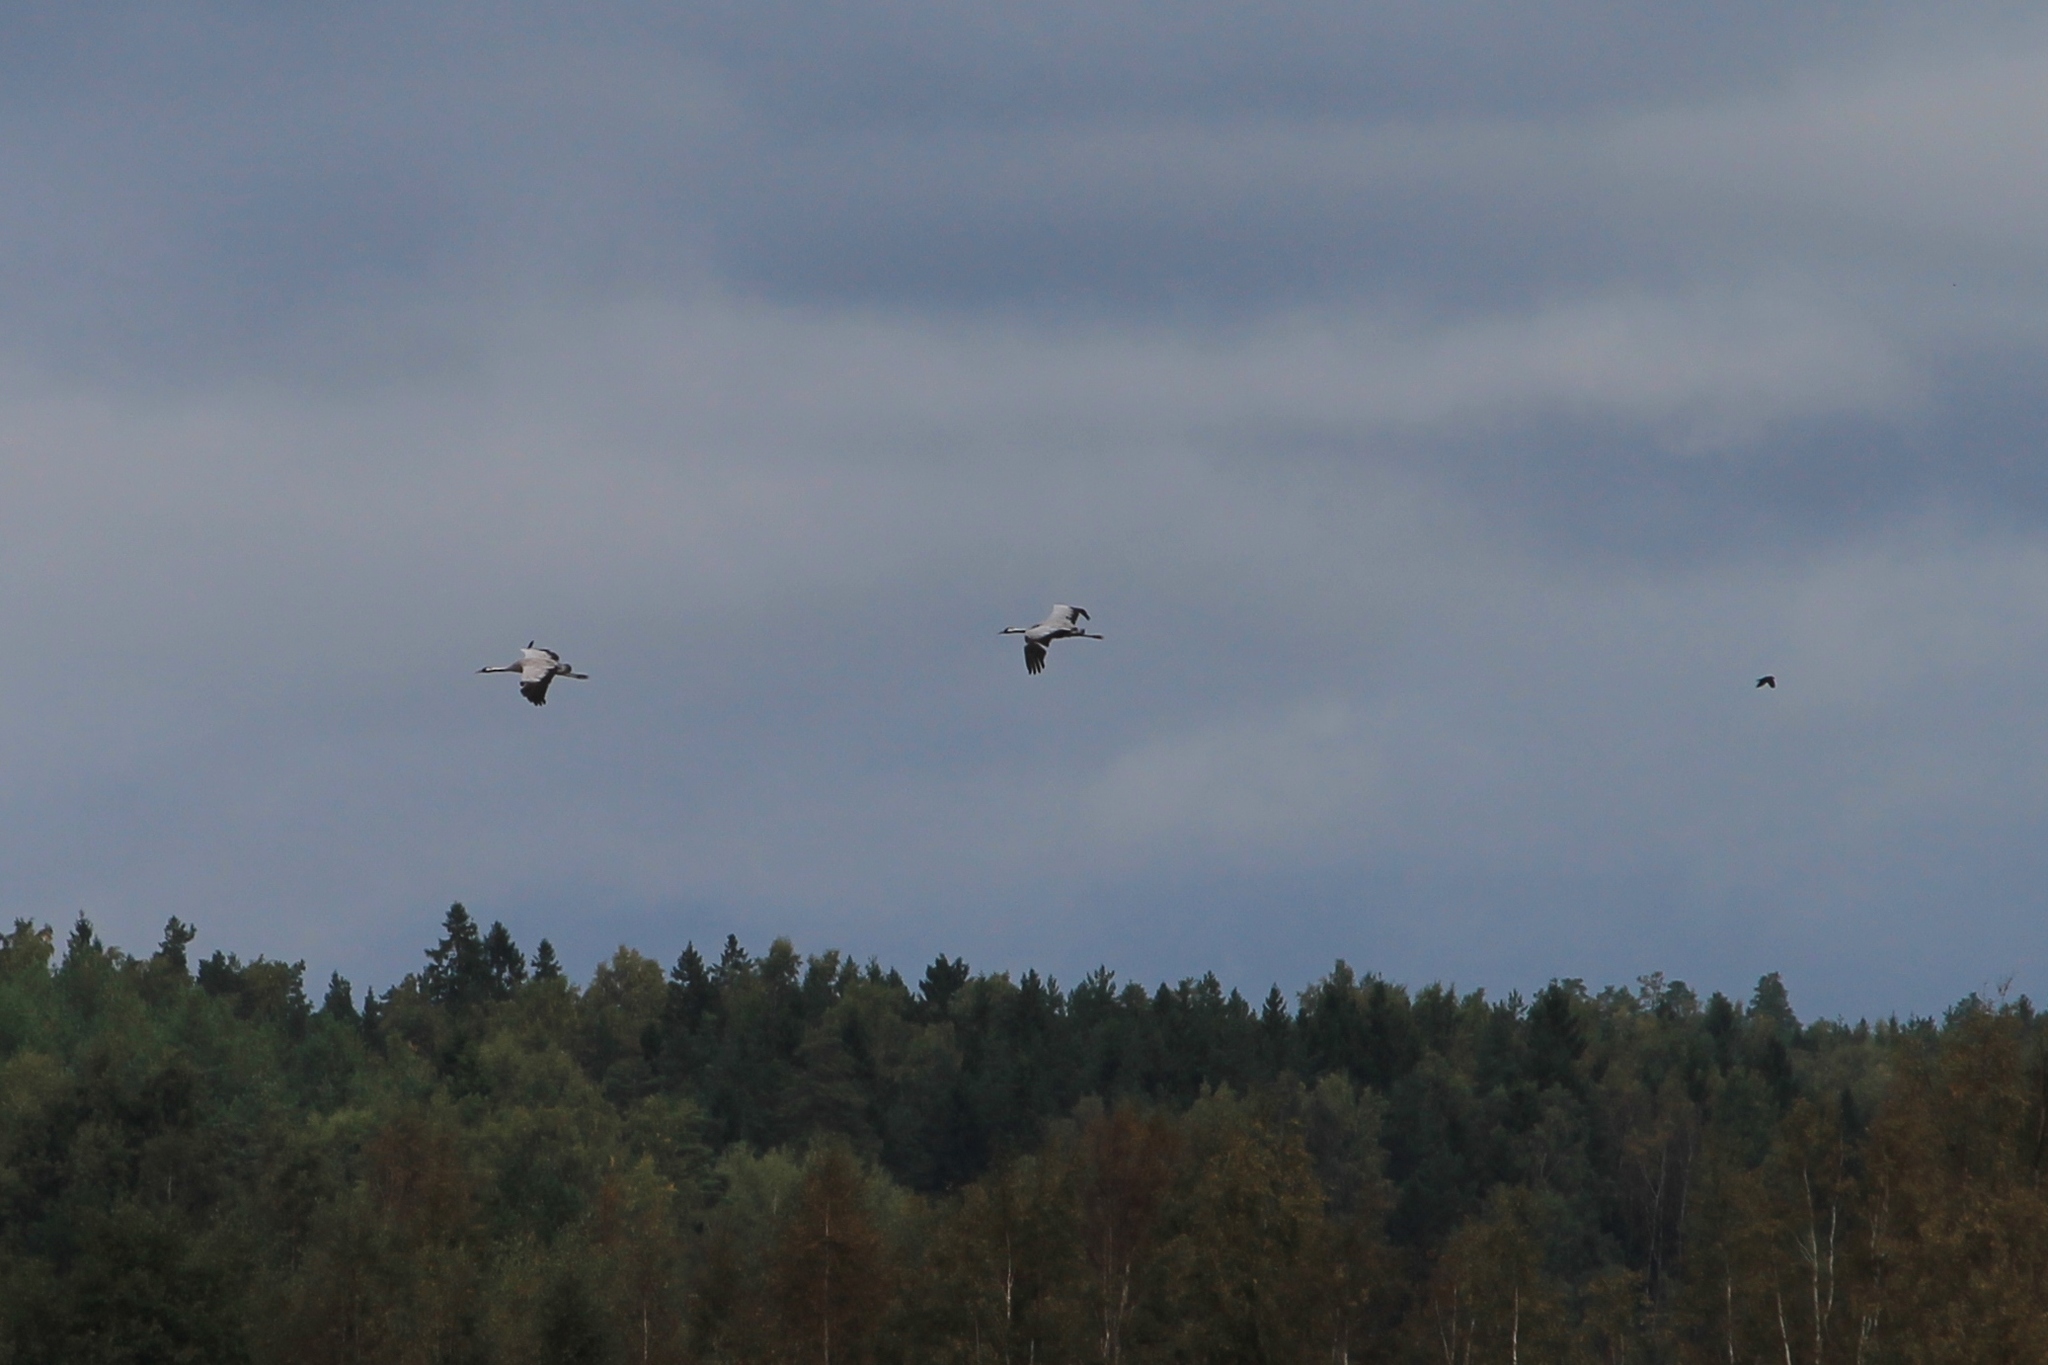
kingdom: Animalia
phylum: Chordata
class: Aves
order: Gruiformes
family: Gruidae
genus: Grus
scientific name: Grus grus
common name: Common crane
